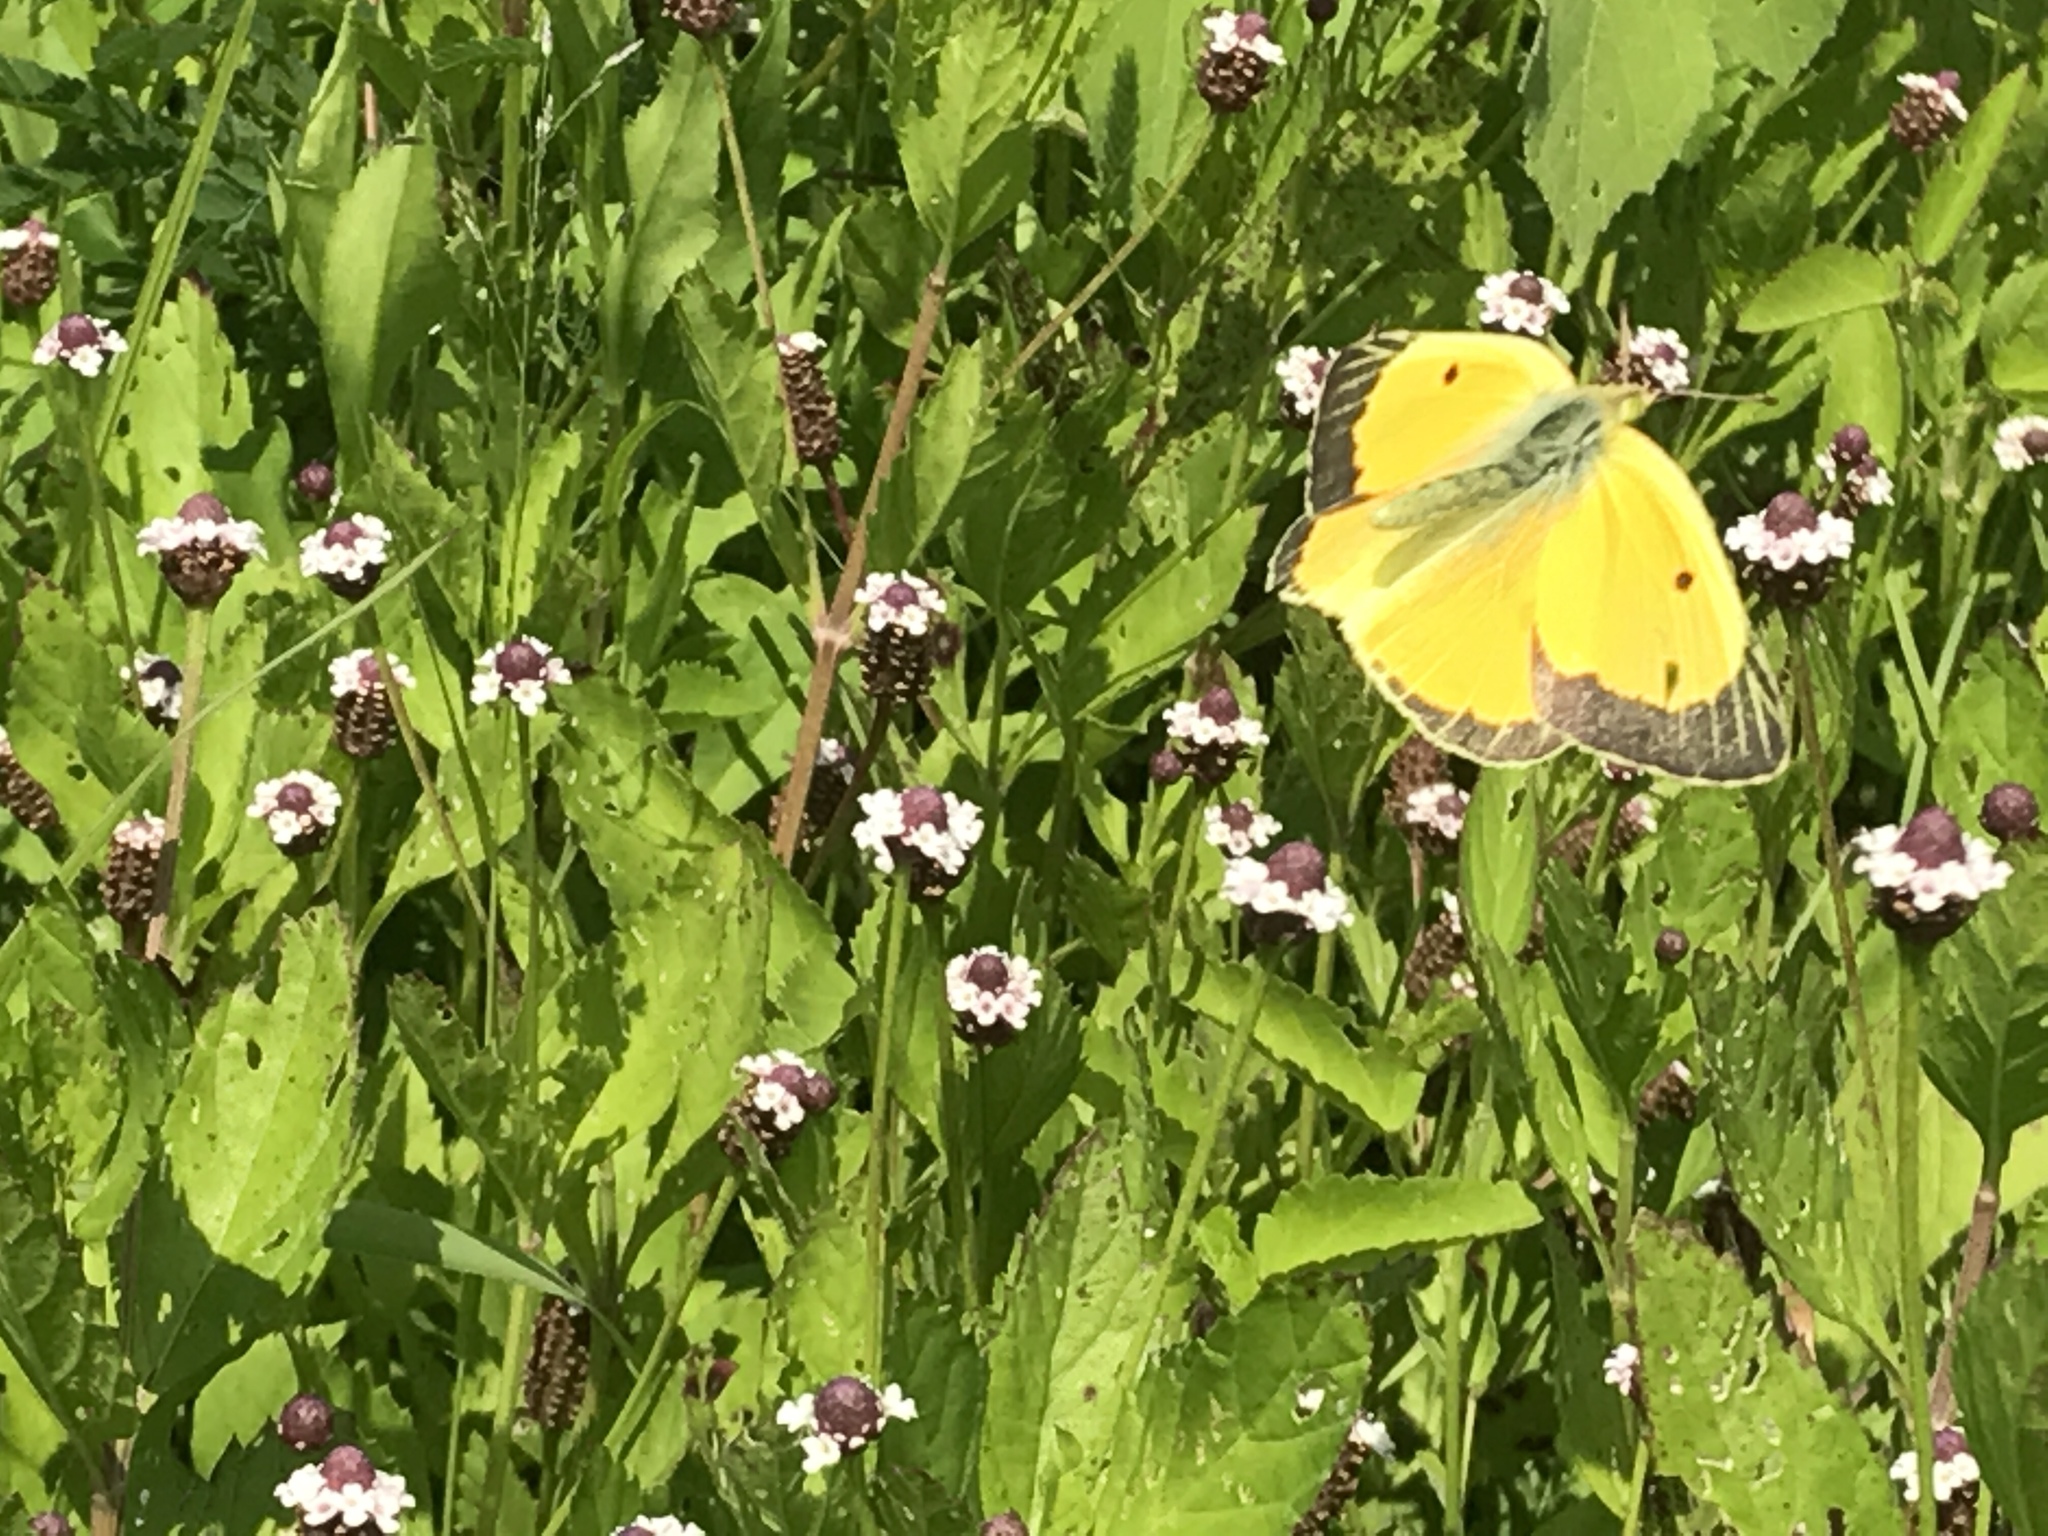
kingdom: Animalia
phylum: Arthropoda
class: Insecta
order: Lepidoptera
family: Pieridae
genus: Colias
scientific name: Colias eurytheme
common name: Alfalfa butterfly
